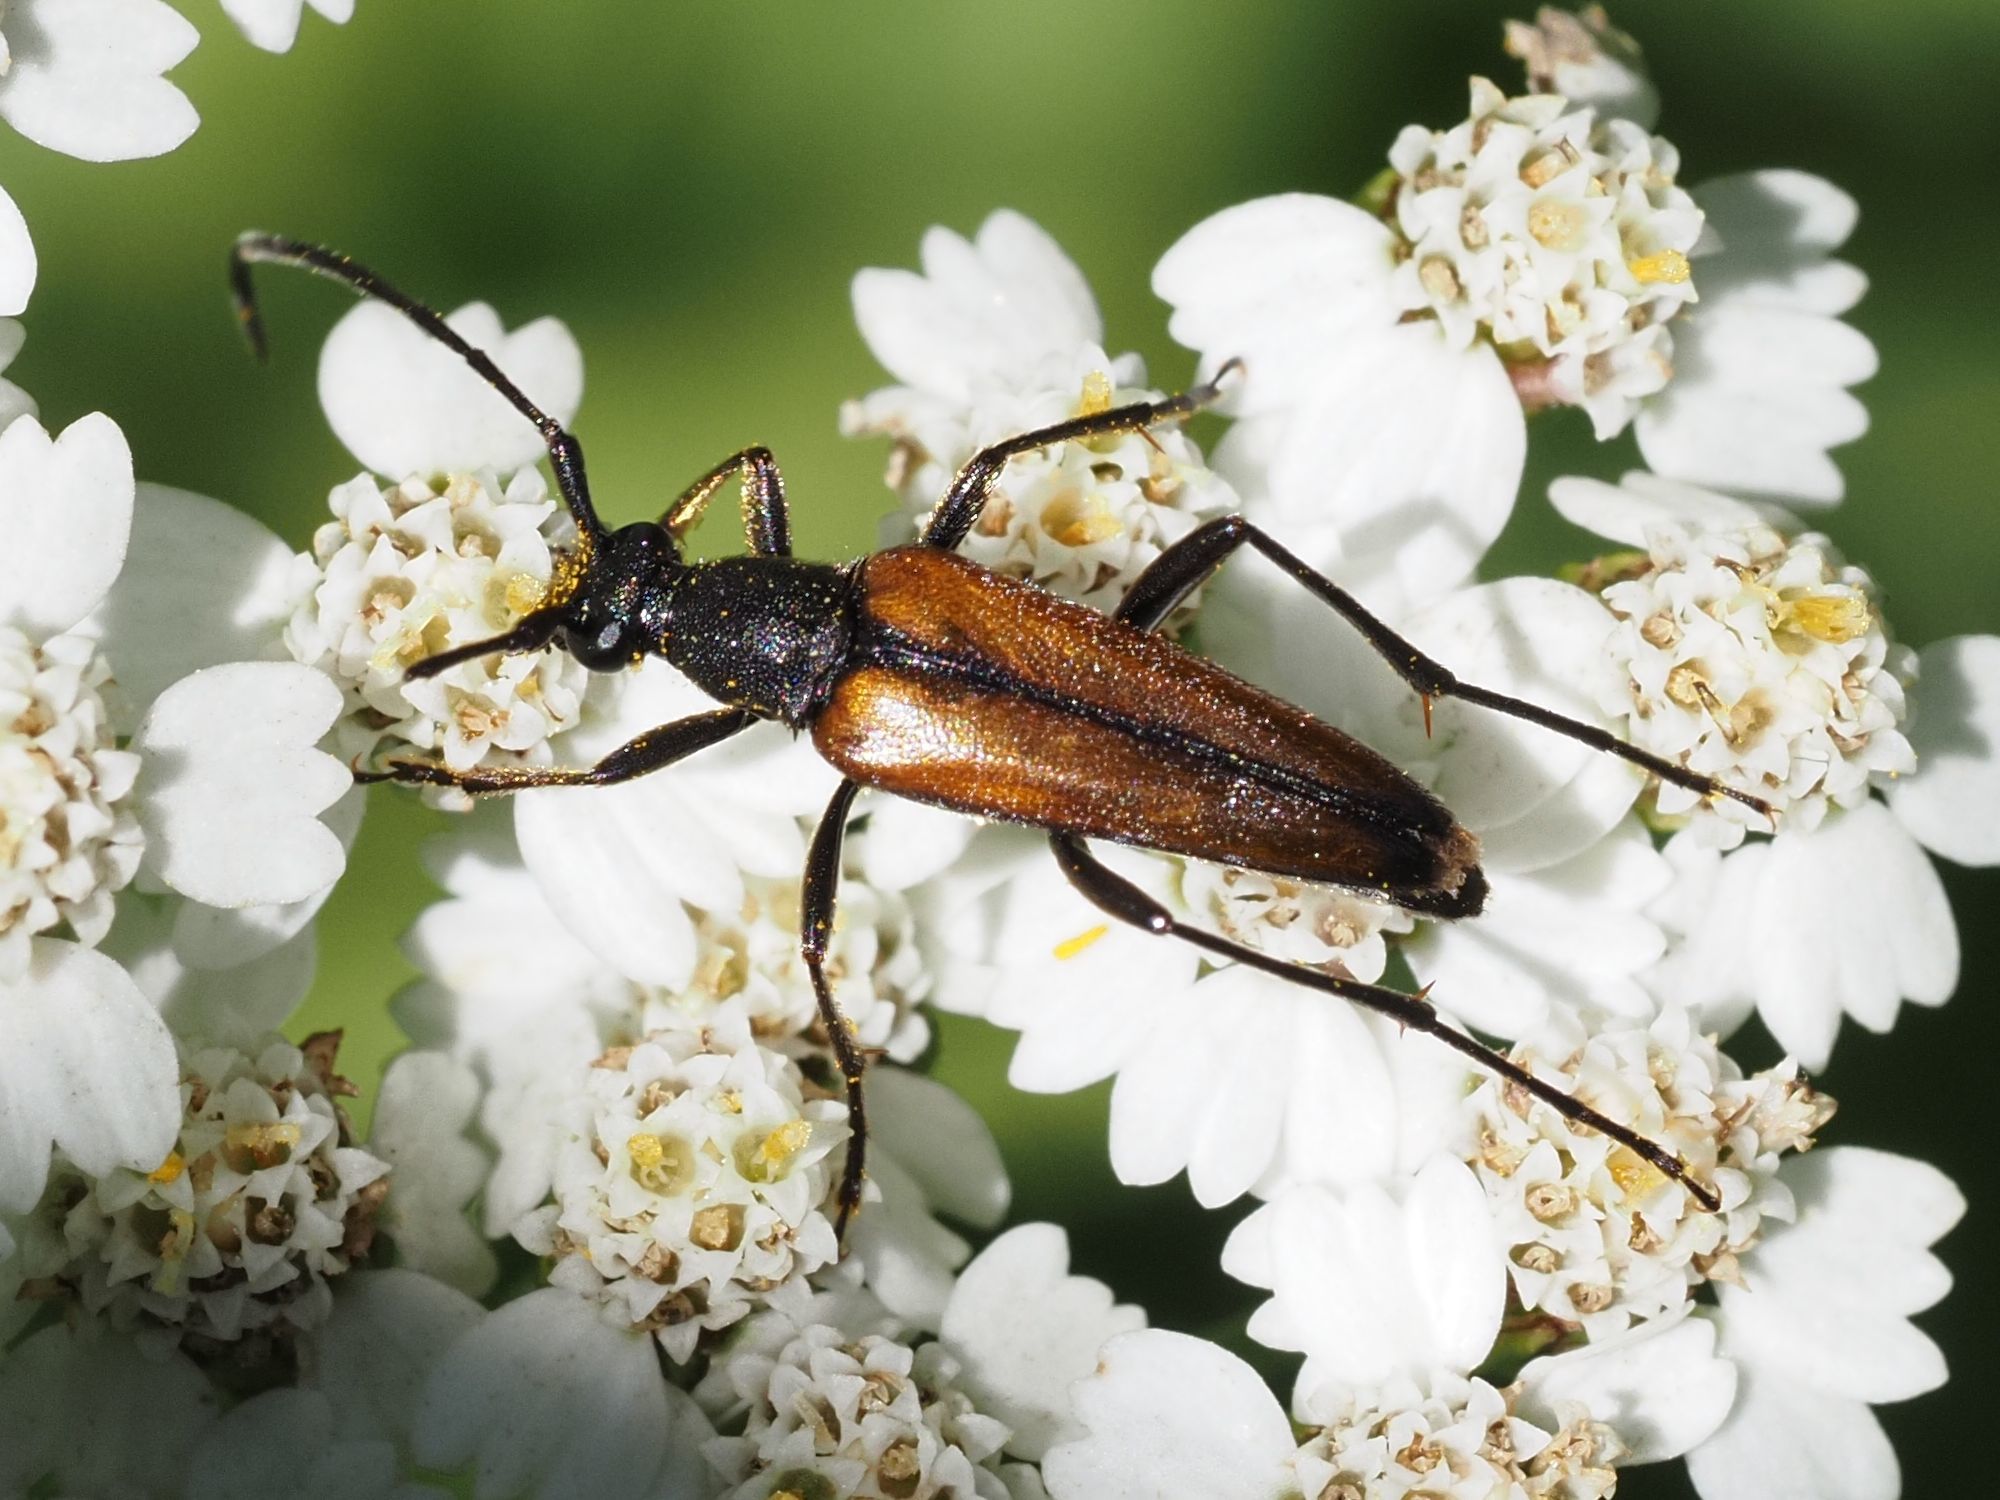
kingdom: Animalia
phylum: Arthropoda
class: Insecta
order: Coleoptera
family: Cerambycidae
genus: Stenurella
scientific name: Stenurella melanura
